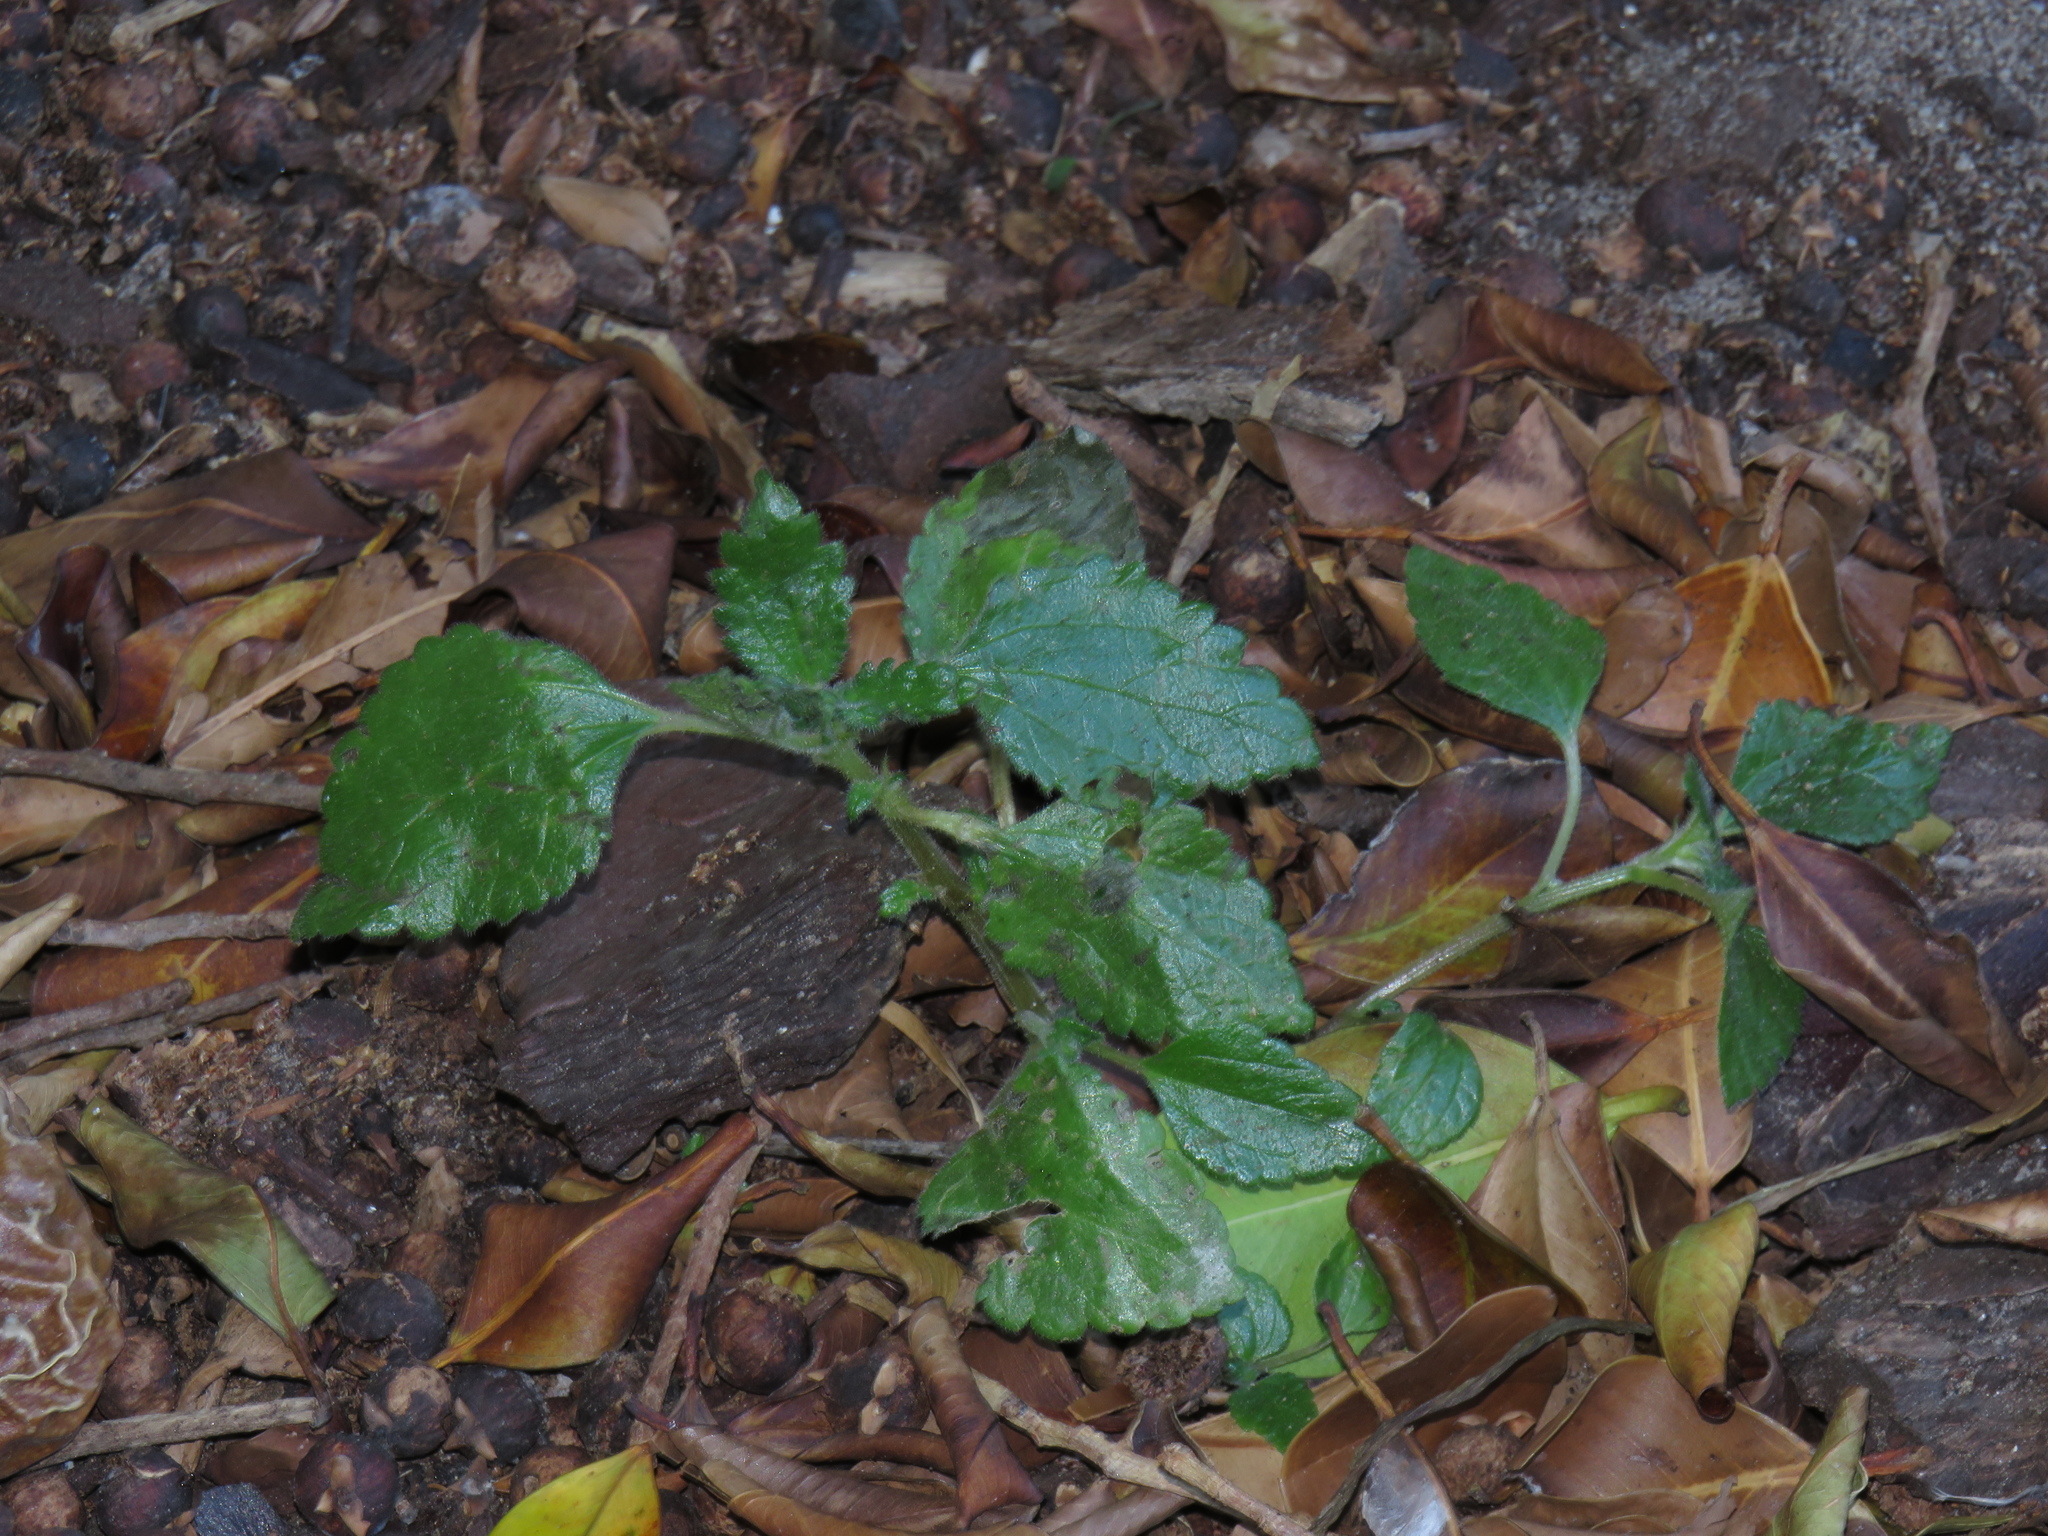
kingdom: Plantae
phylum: Tracheophyta
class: Magnoliopsida
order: Rosales
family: Urticaceae
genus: Didymodoxa
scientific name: Didymodoxa capensis
